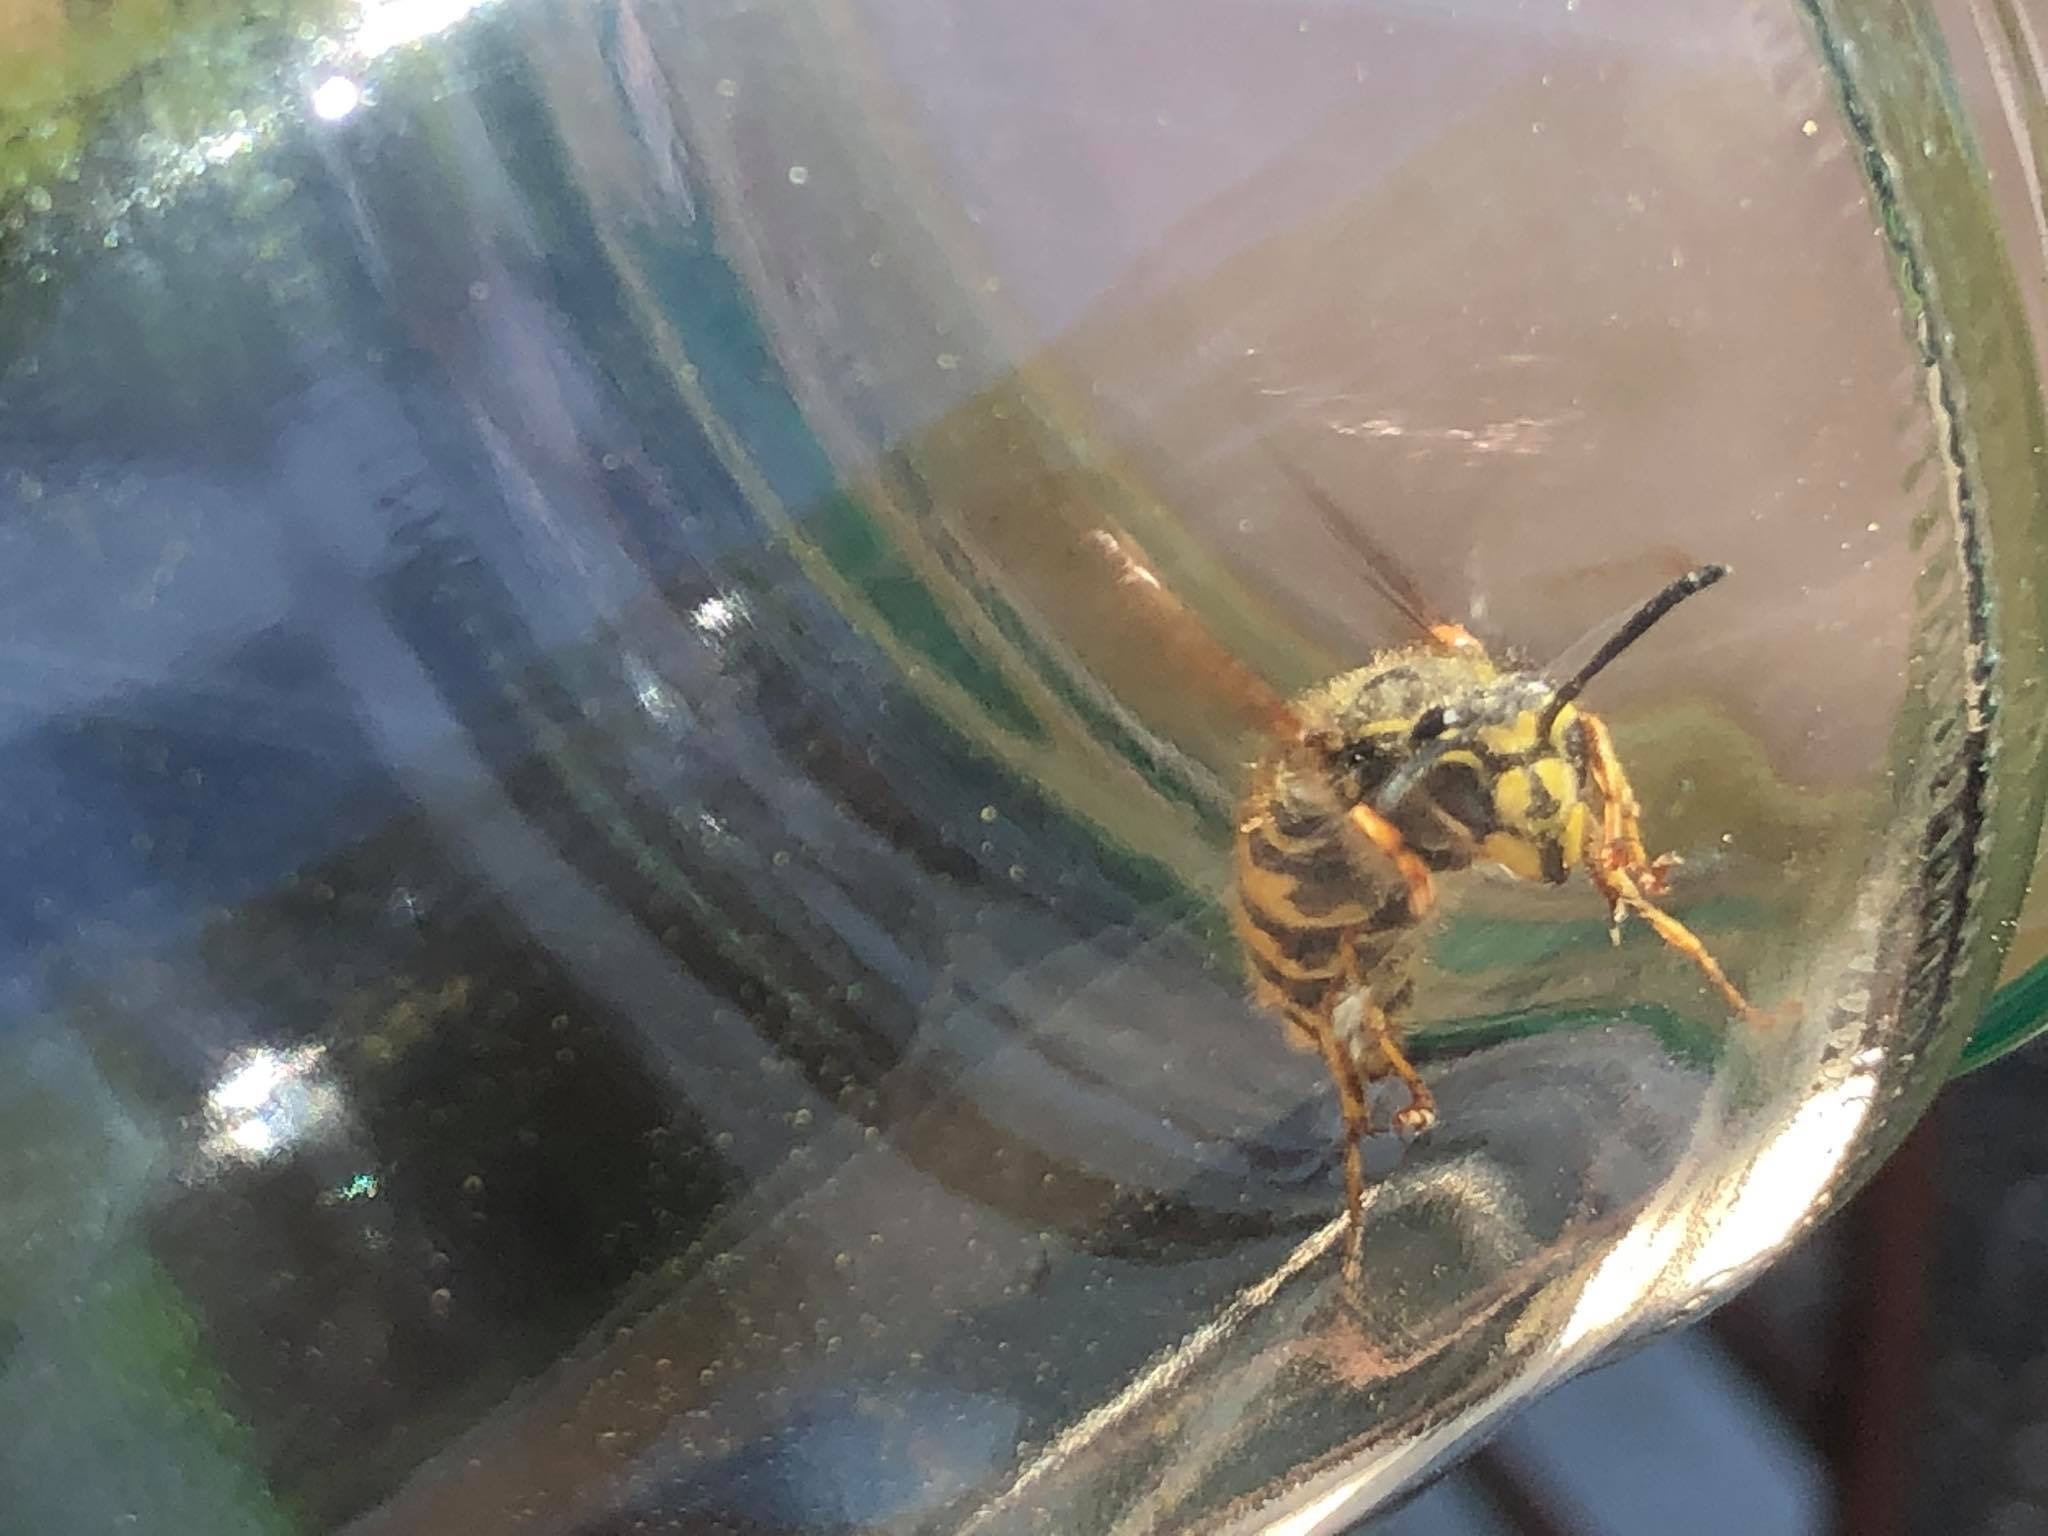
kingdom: Animalia
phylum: Arthropoda
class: Insecta
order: Hymenoptera
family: Vespidae
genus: Vespula
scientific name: Vespula vulgaris
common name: Common wasp
